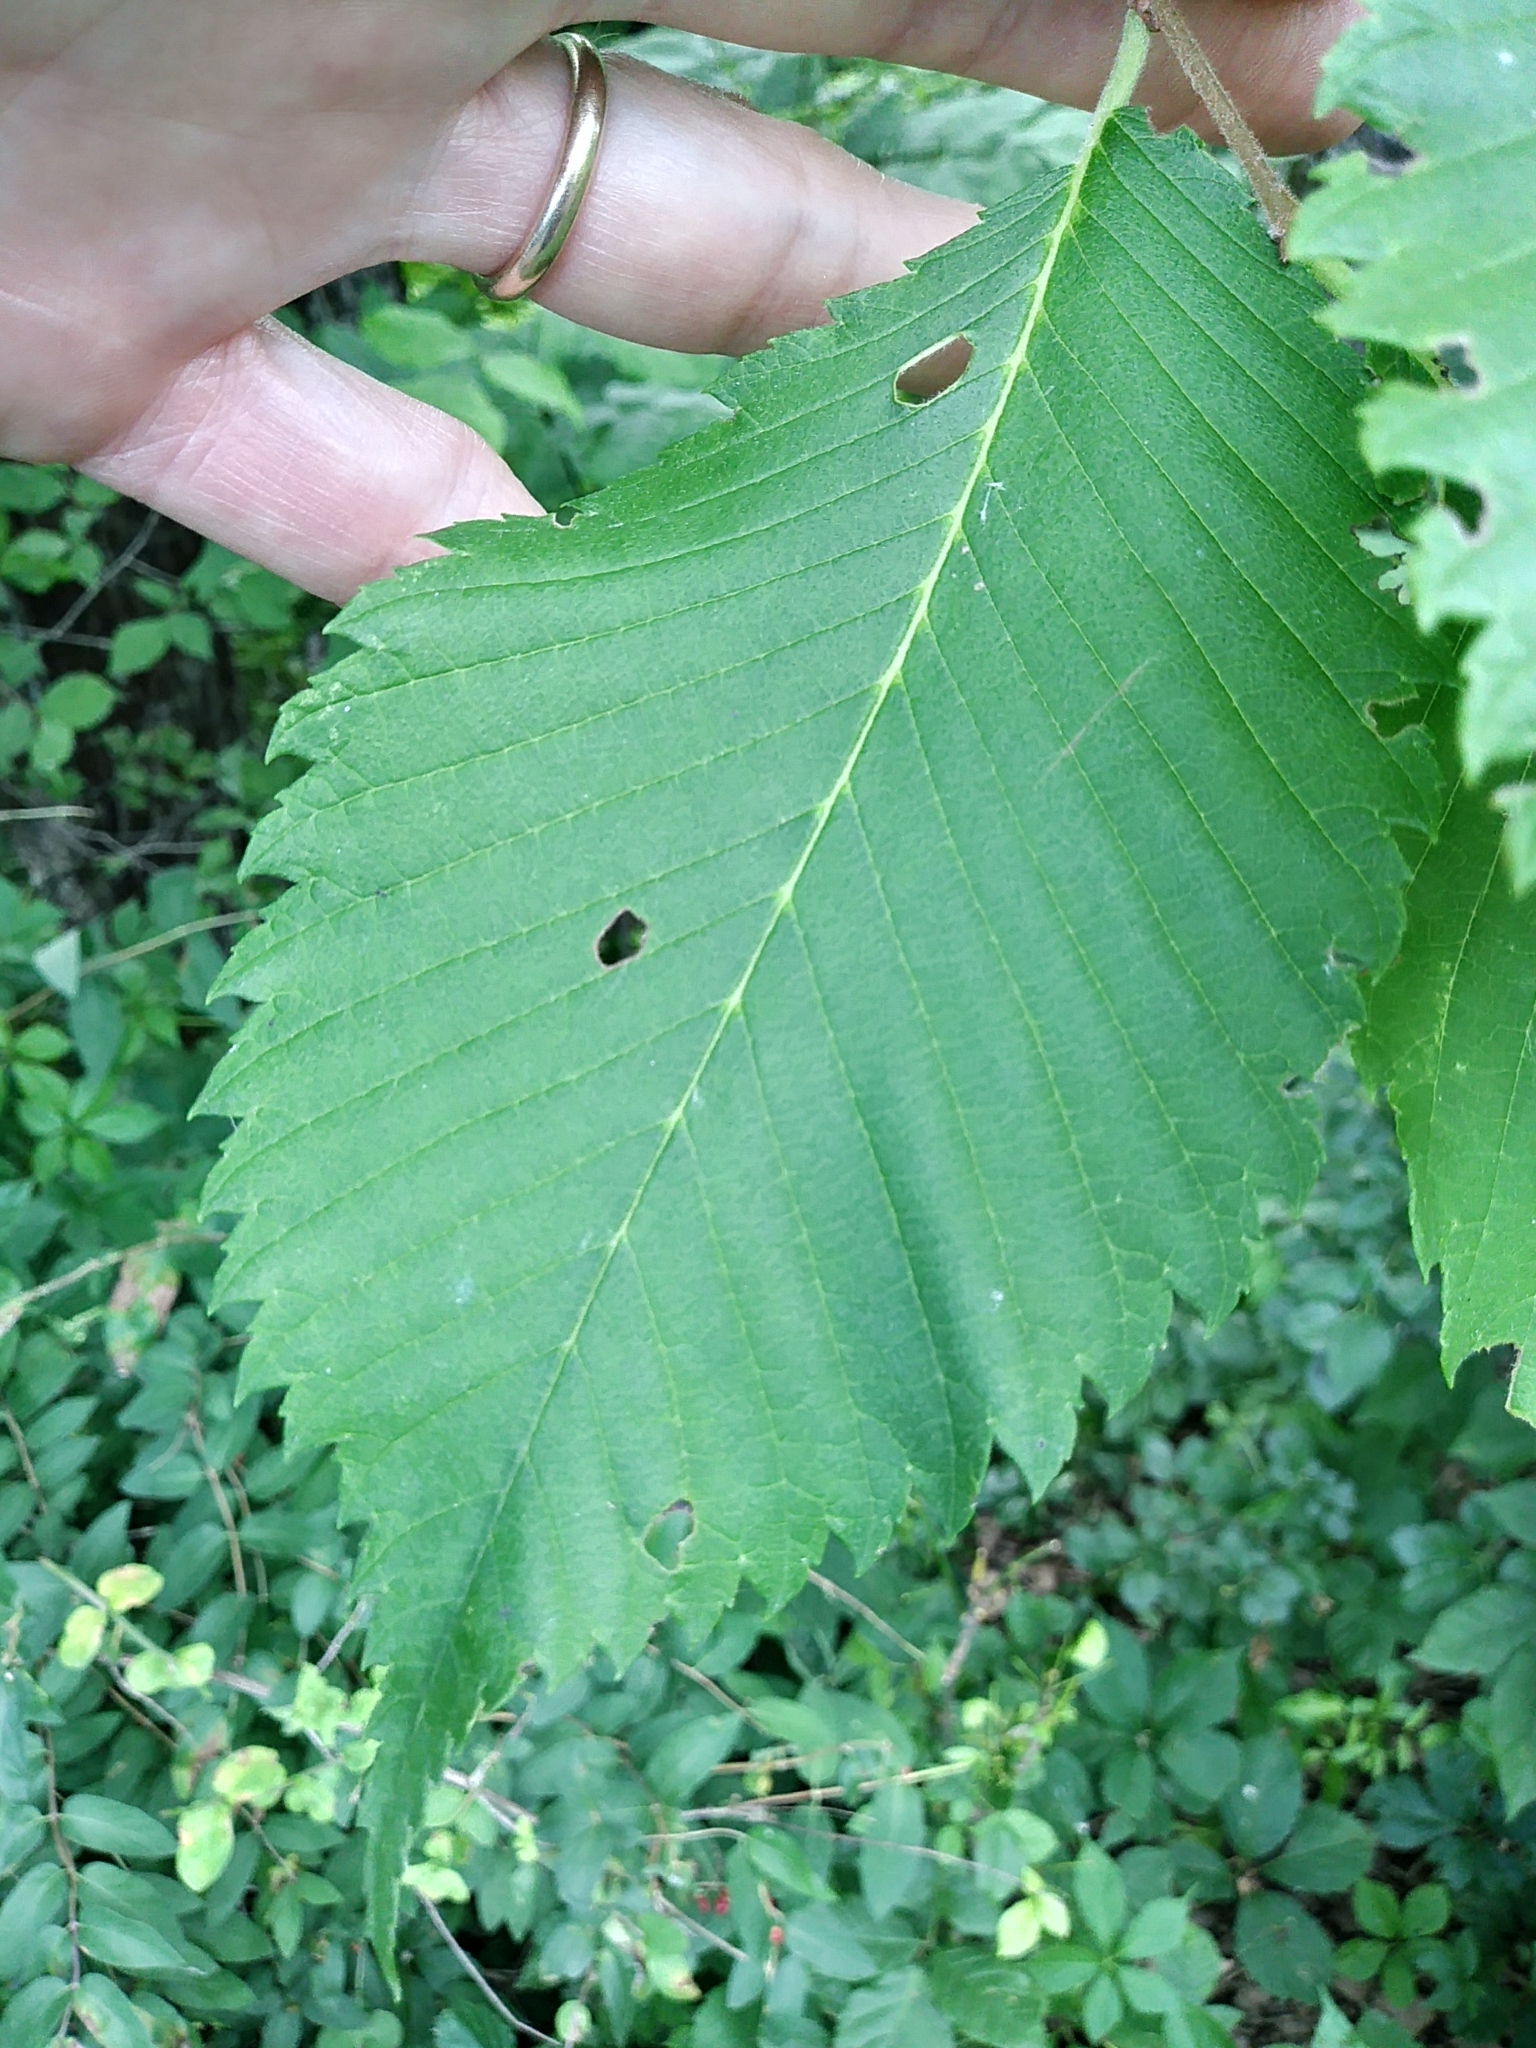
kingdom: Plantae
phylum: Tracheophyta
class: Magnoliopsida
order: Rosales
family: Ulmaceae
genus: Ulmus
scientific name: Ulmus americana
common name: American elm
